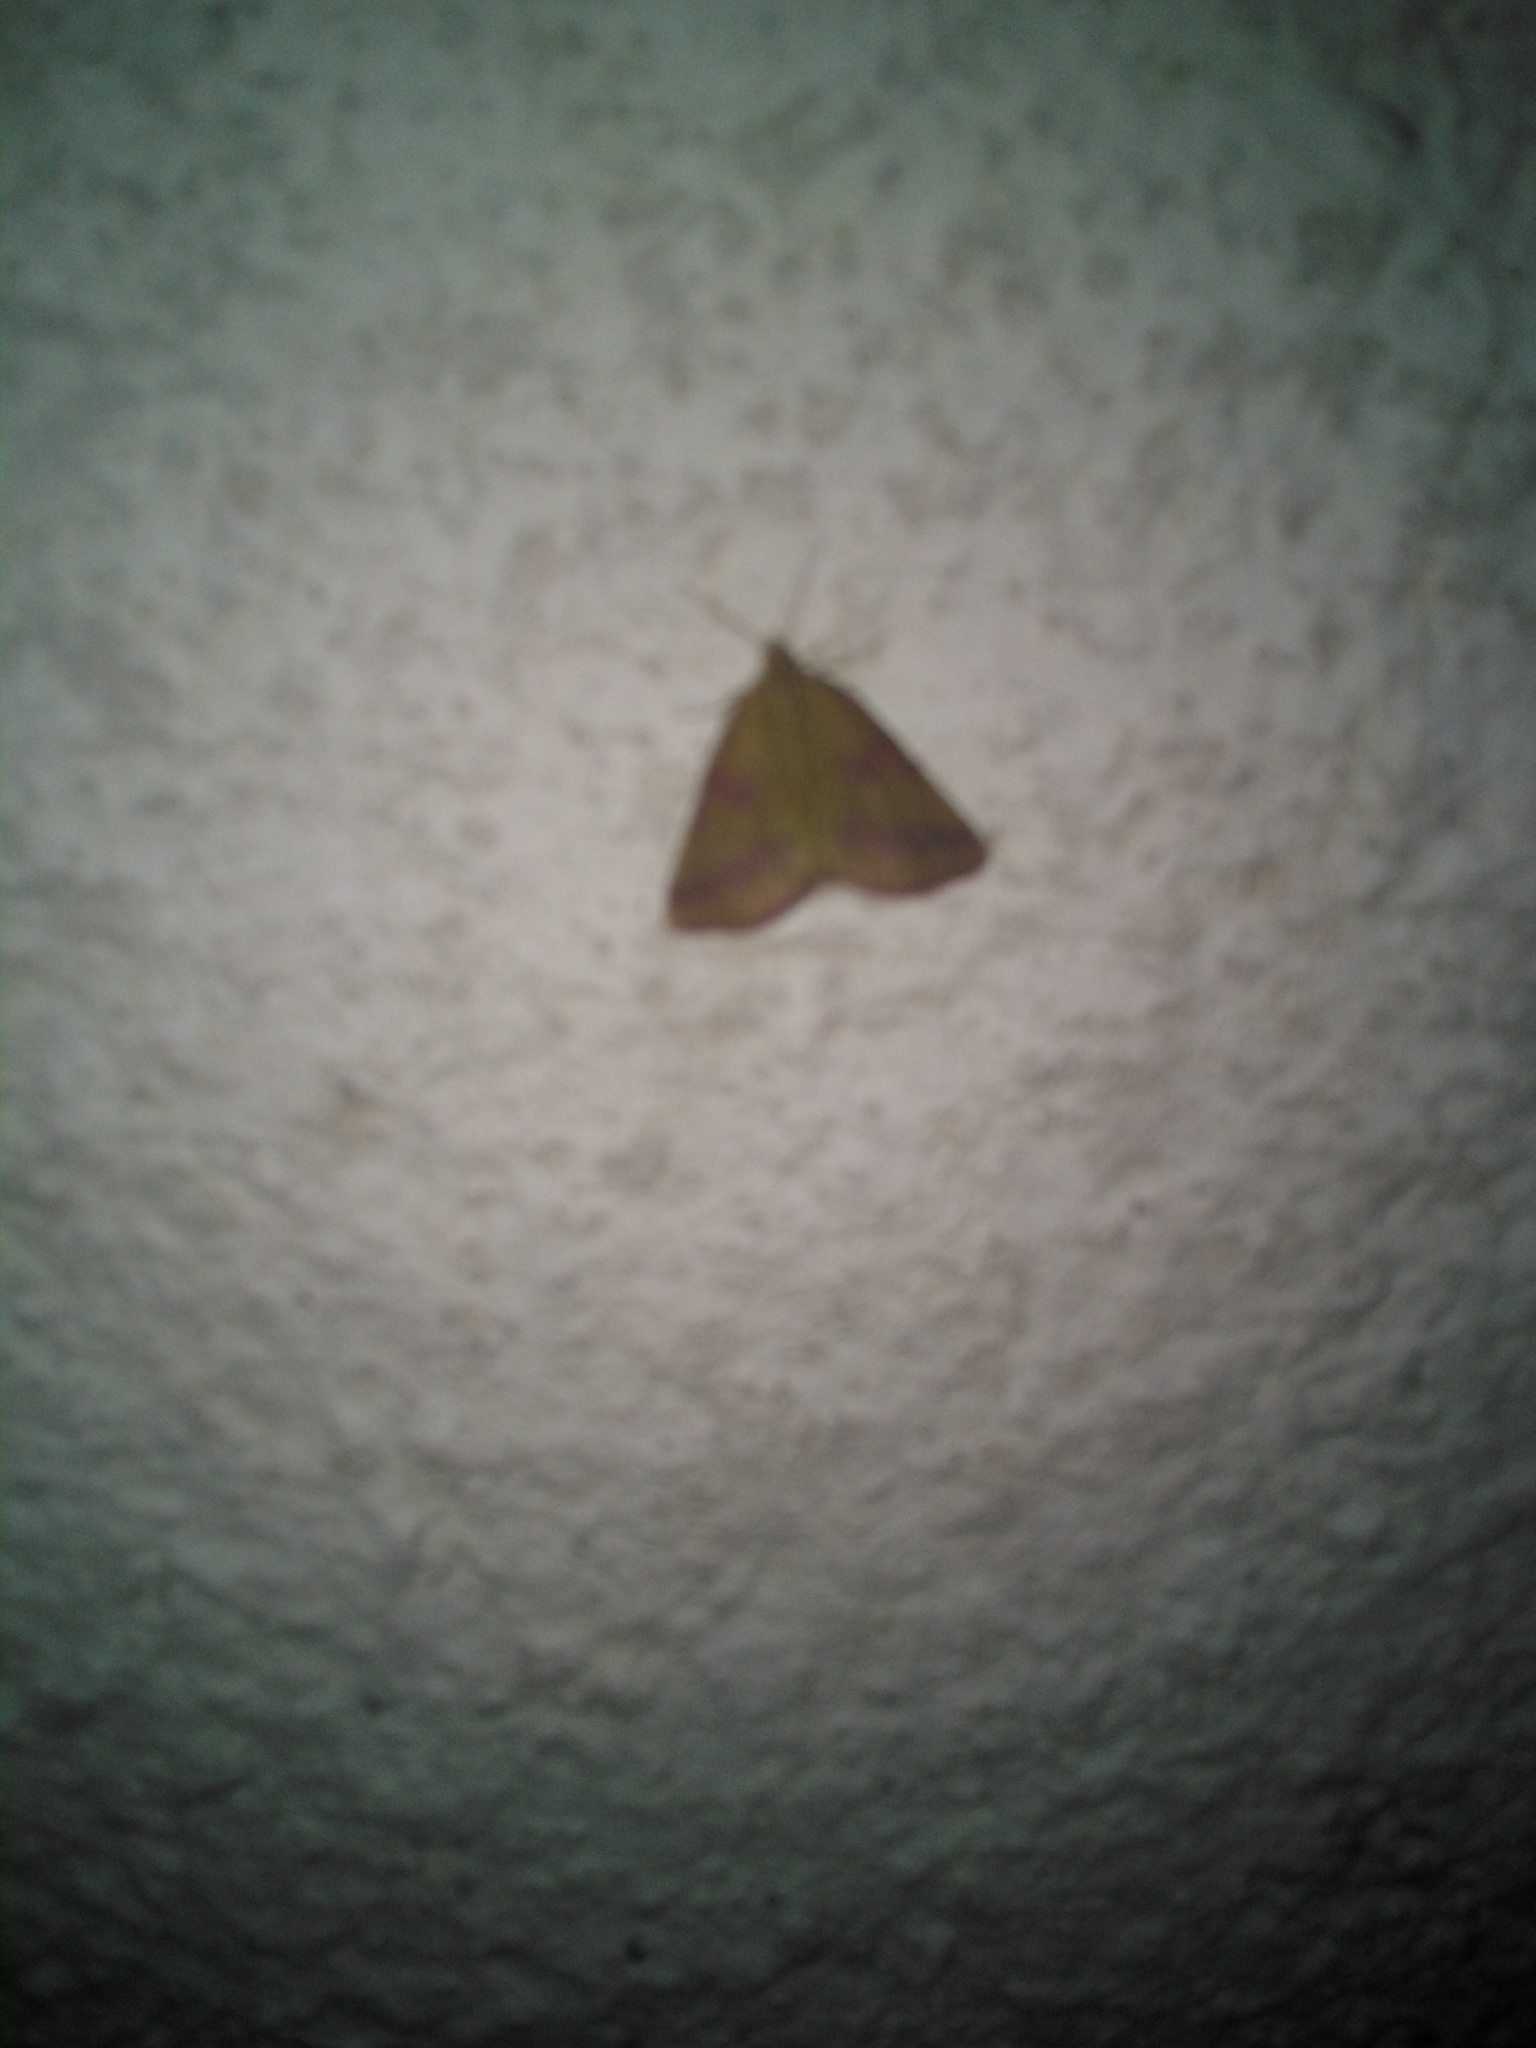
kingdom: Animalia
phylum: Arthropoda
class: Insecta
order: Lepidoptera
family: Geometridae
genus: Lythria
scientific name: Lythria purpuraria
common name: Purple-barred yellow
